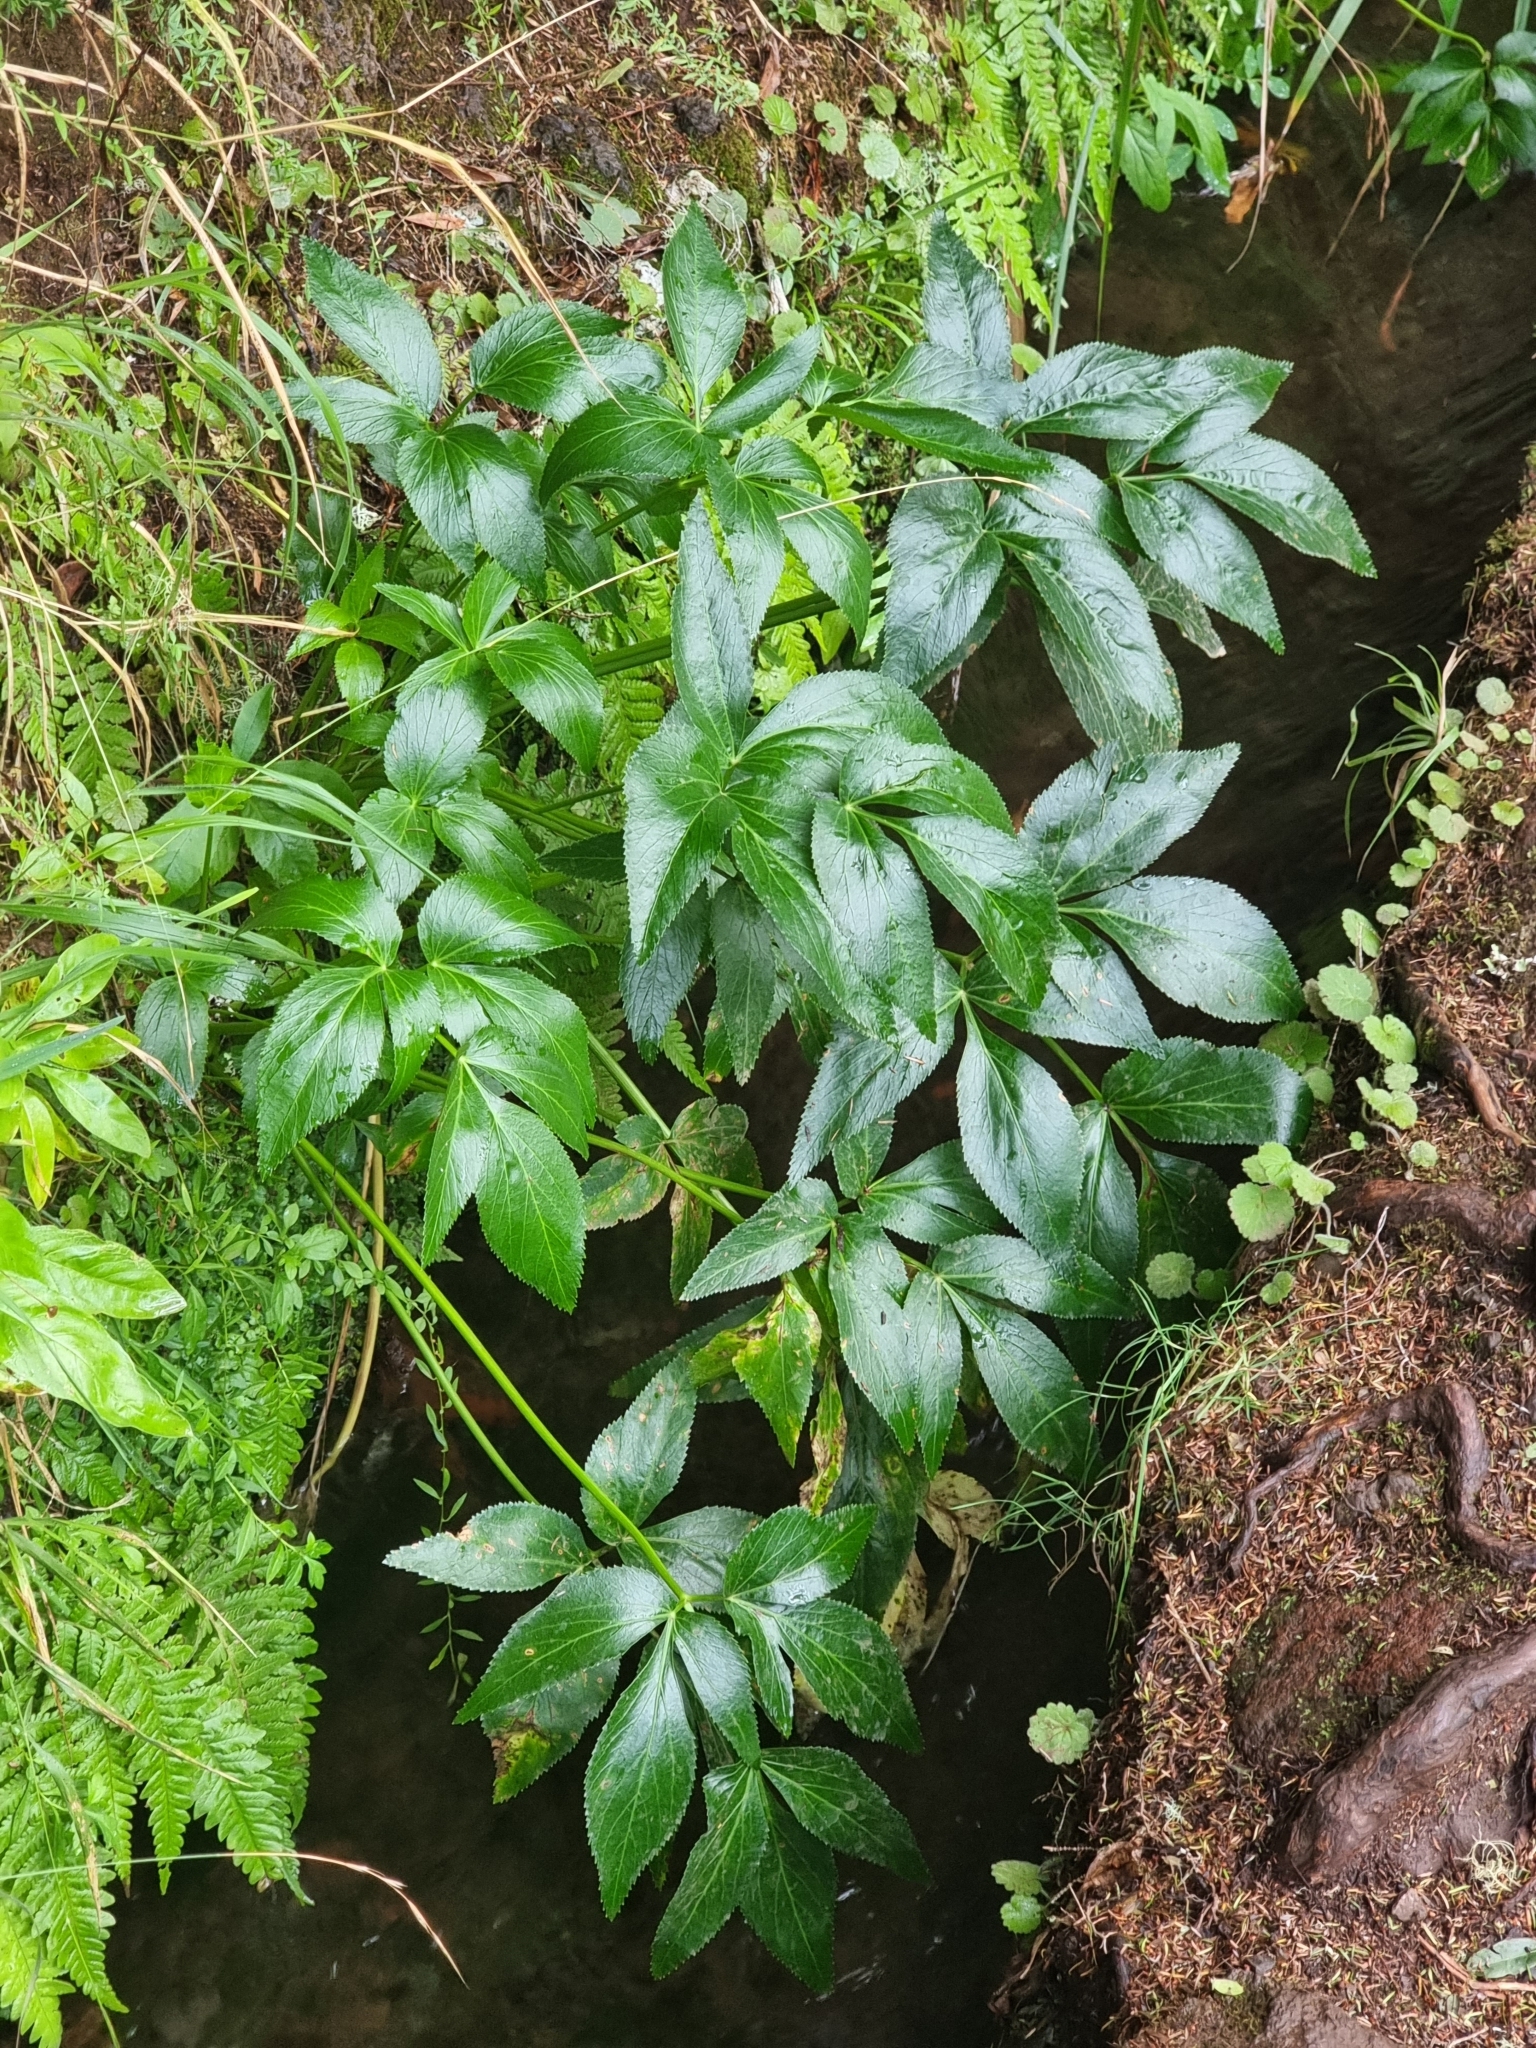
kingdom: Plantae
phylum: Tracheophyta
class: Magnoliopsida
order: Apiales
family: Apiaceae
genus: Imperatoria
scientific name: Imperatoria lowei
